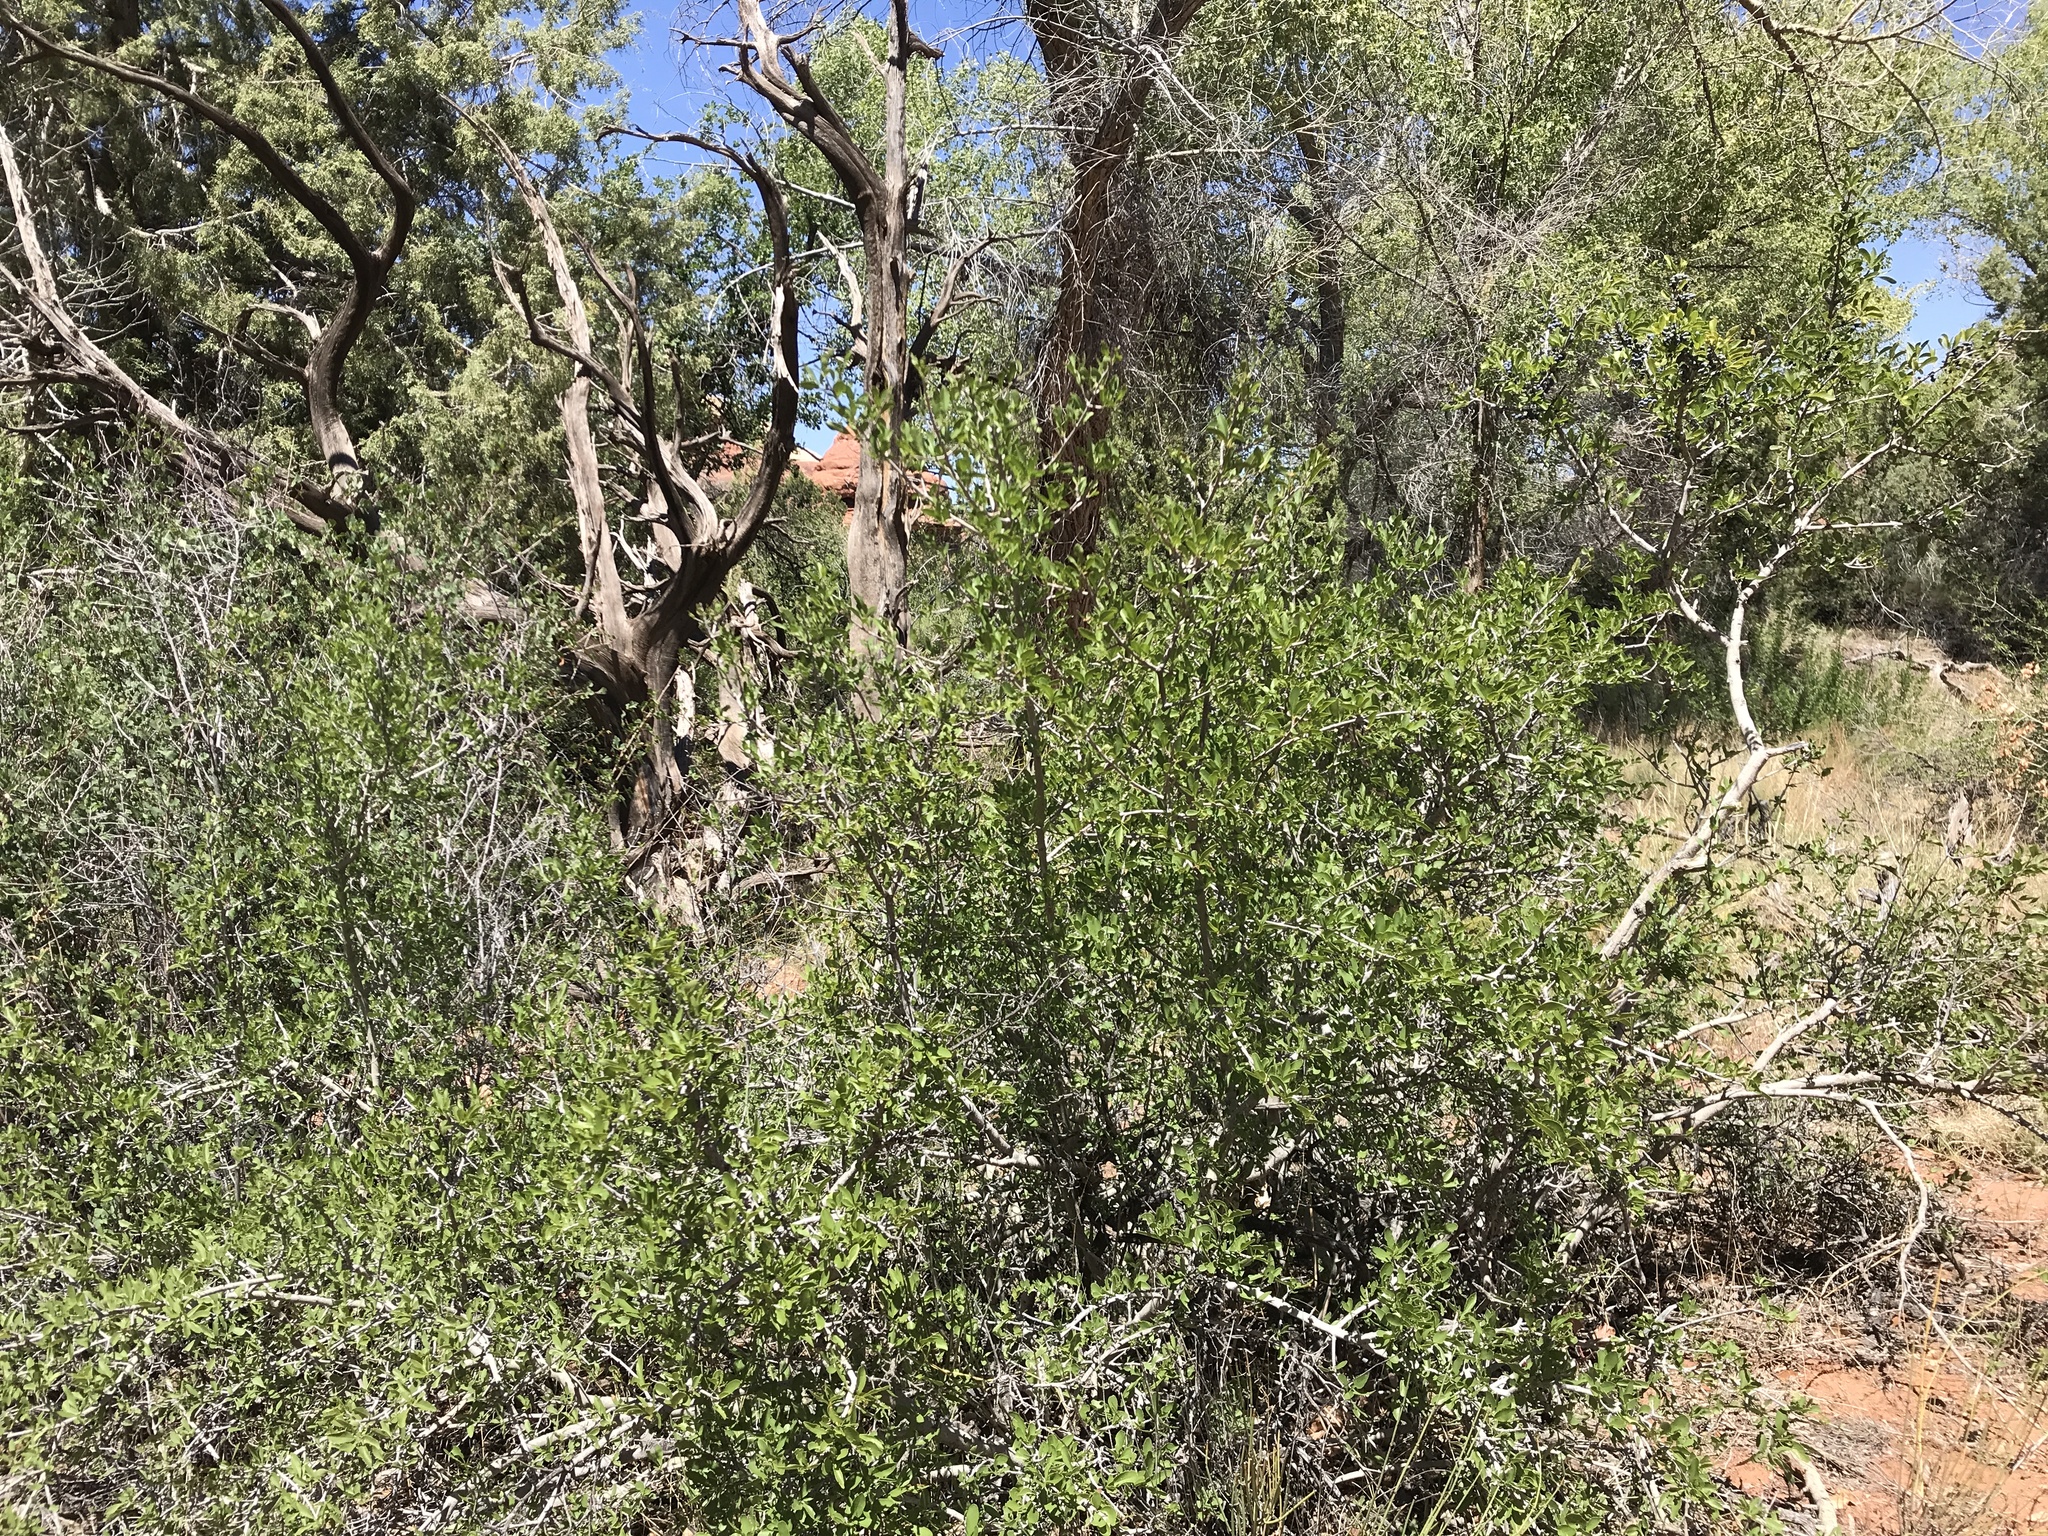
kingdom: Plantae
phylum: Tracheophyta
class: Magnoliopsida
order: Lamiales
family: Oleaceae
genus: Forestiera
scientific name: Forestiera pubescens
